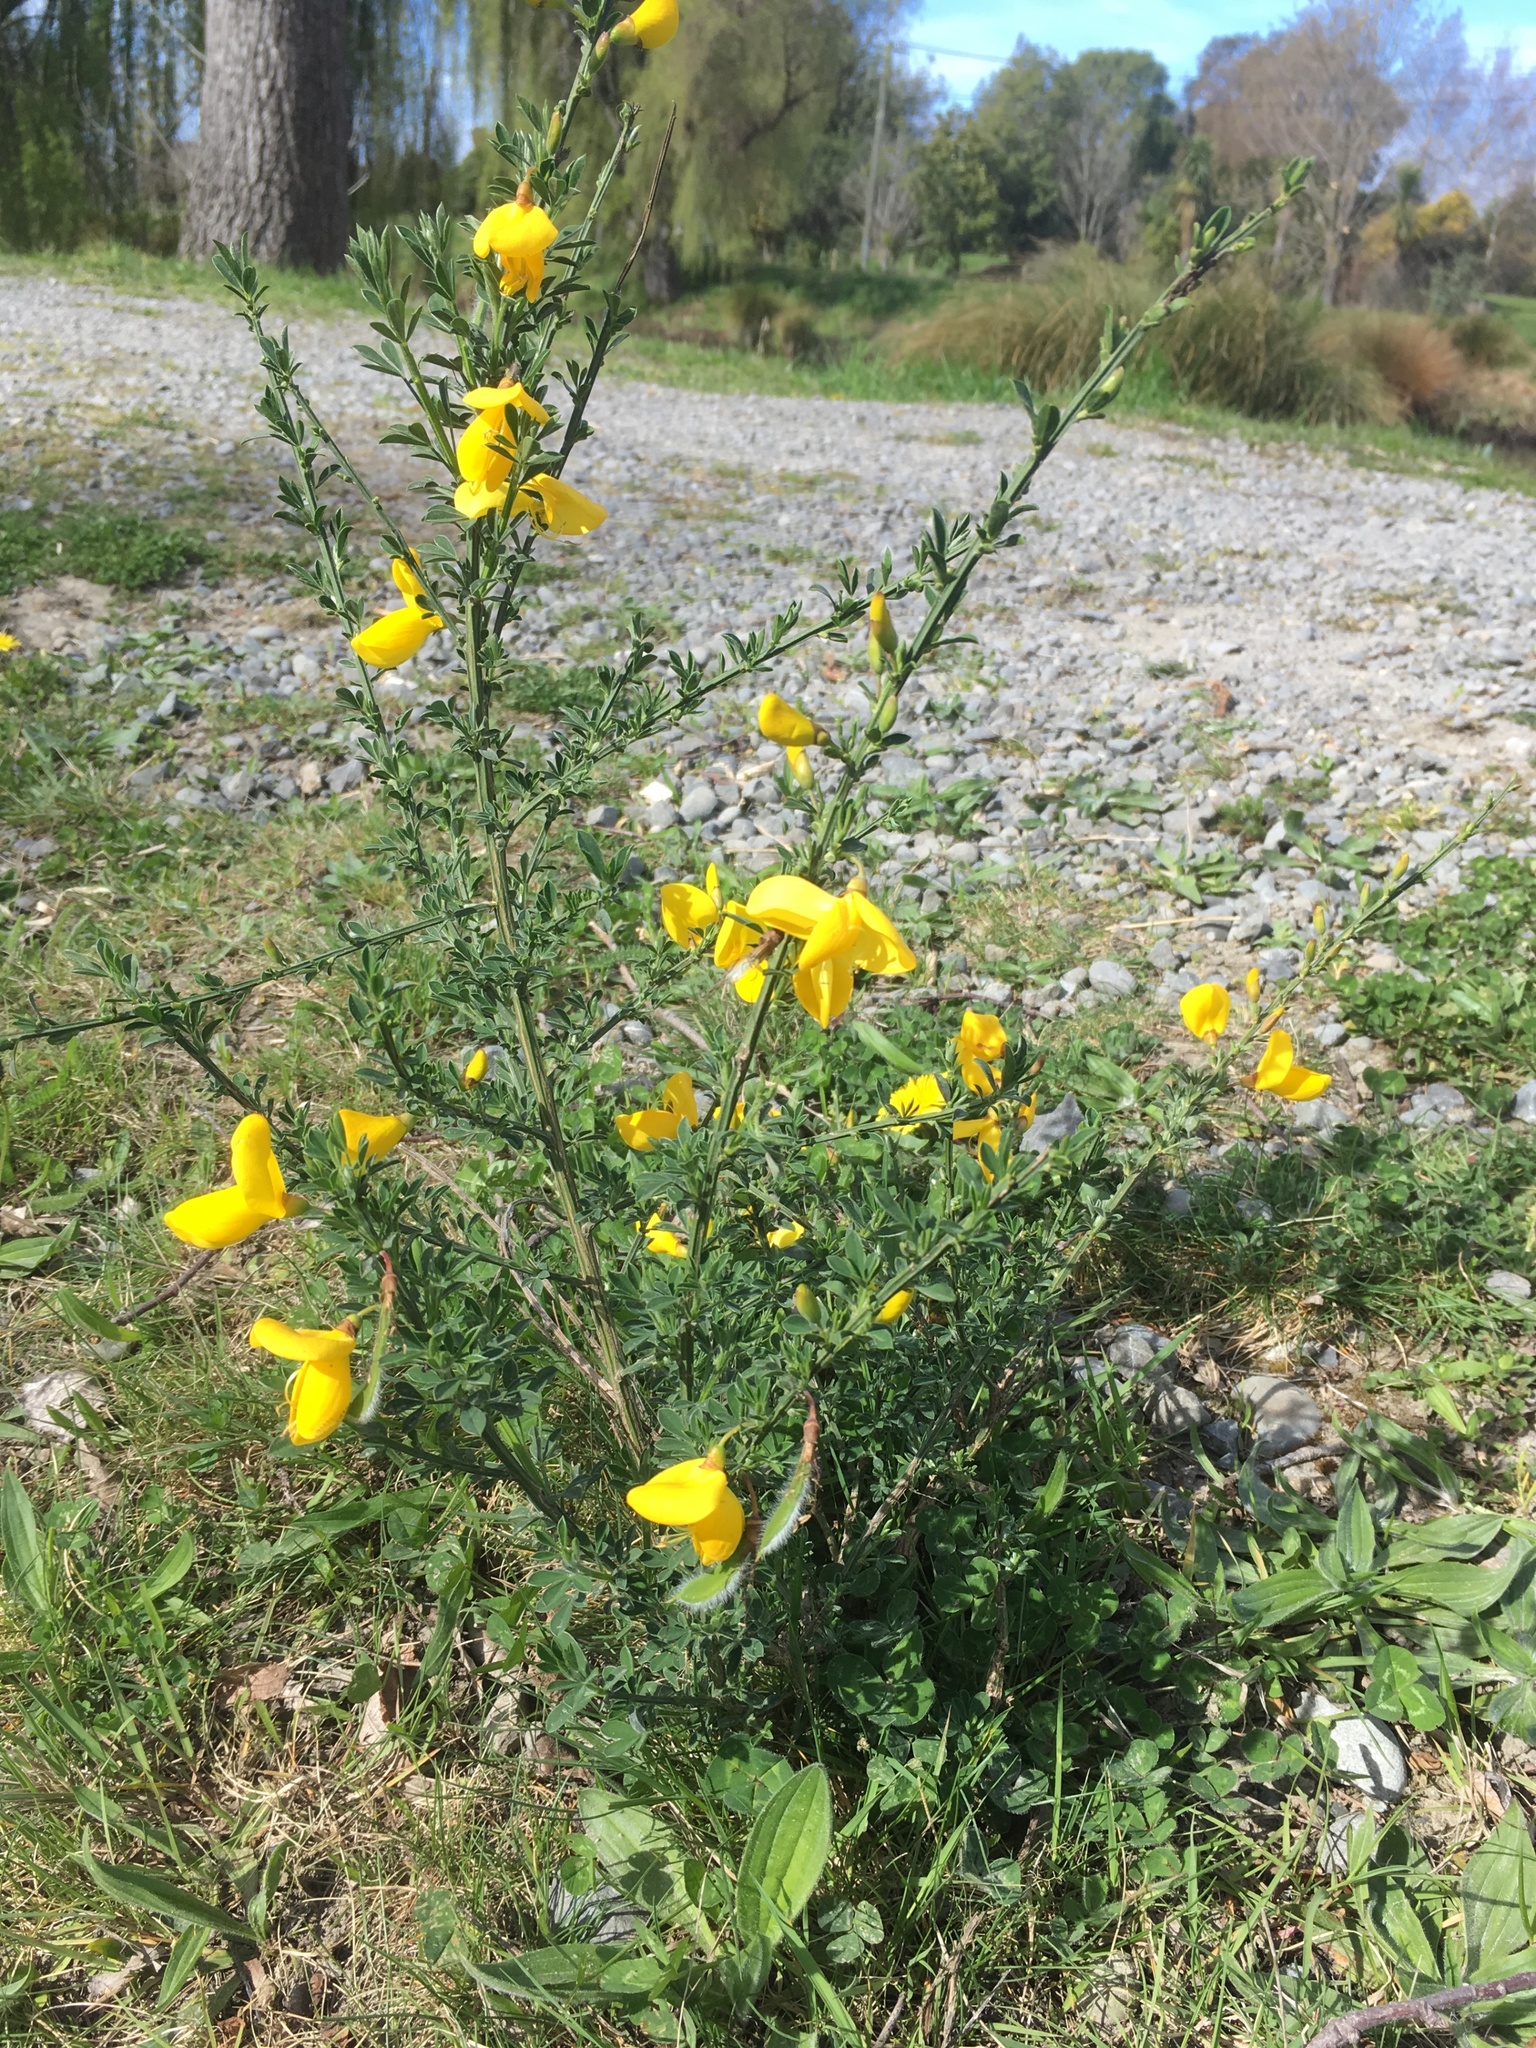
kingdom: Plantae
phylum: Tracheophyta
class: Magnoliopsida
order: Fabales
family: Fabaceae
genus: Cytisus
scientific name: Cytisus scoparius
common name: Scotch broom
